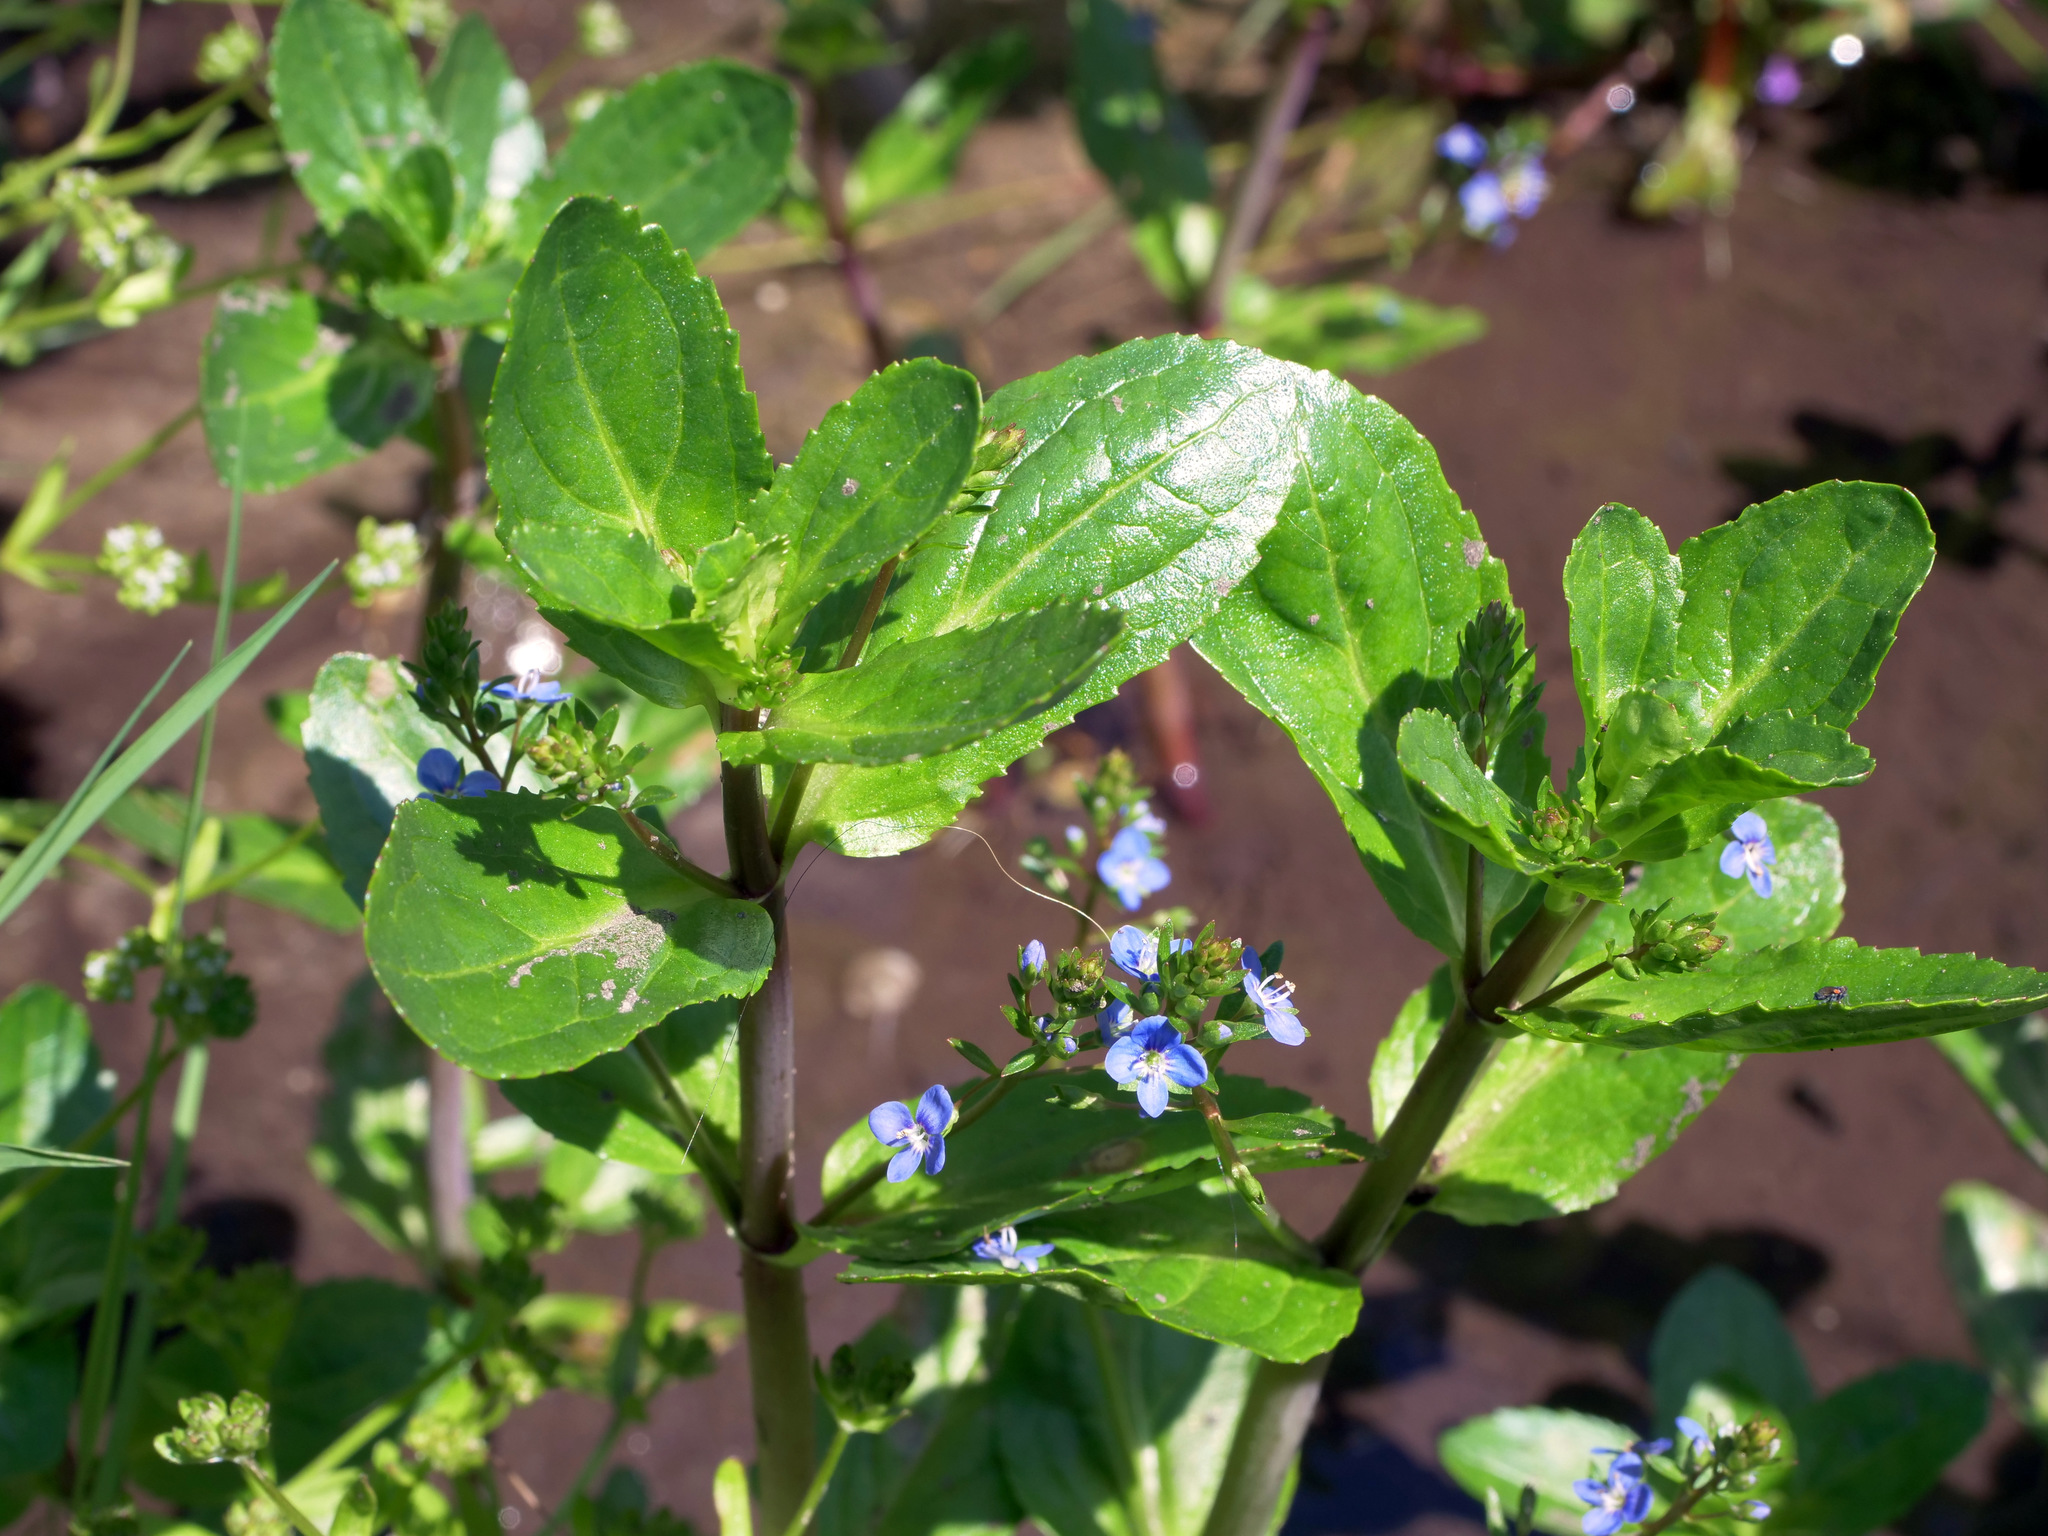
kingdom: Plantae
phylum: Tracheophyta
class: Magnoliopsida
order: Lamiales
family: Plantaginaceae
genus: Veronica
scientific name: Veronica beccabunga
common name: Brooklime
